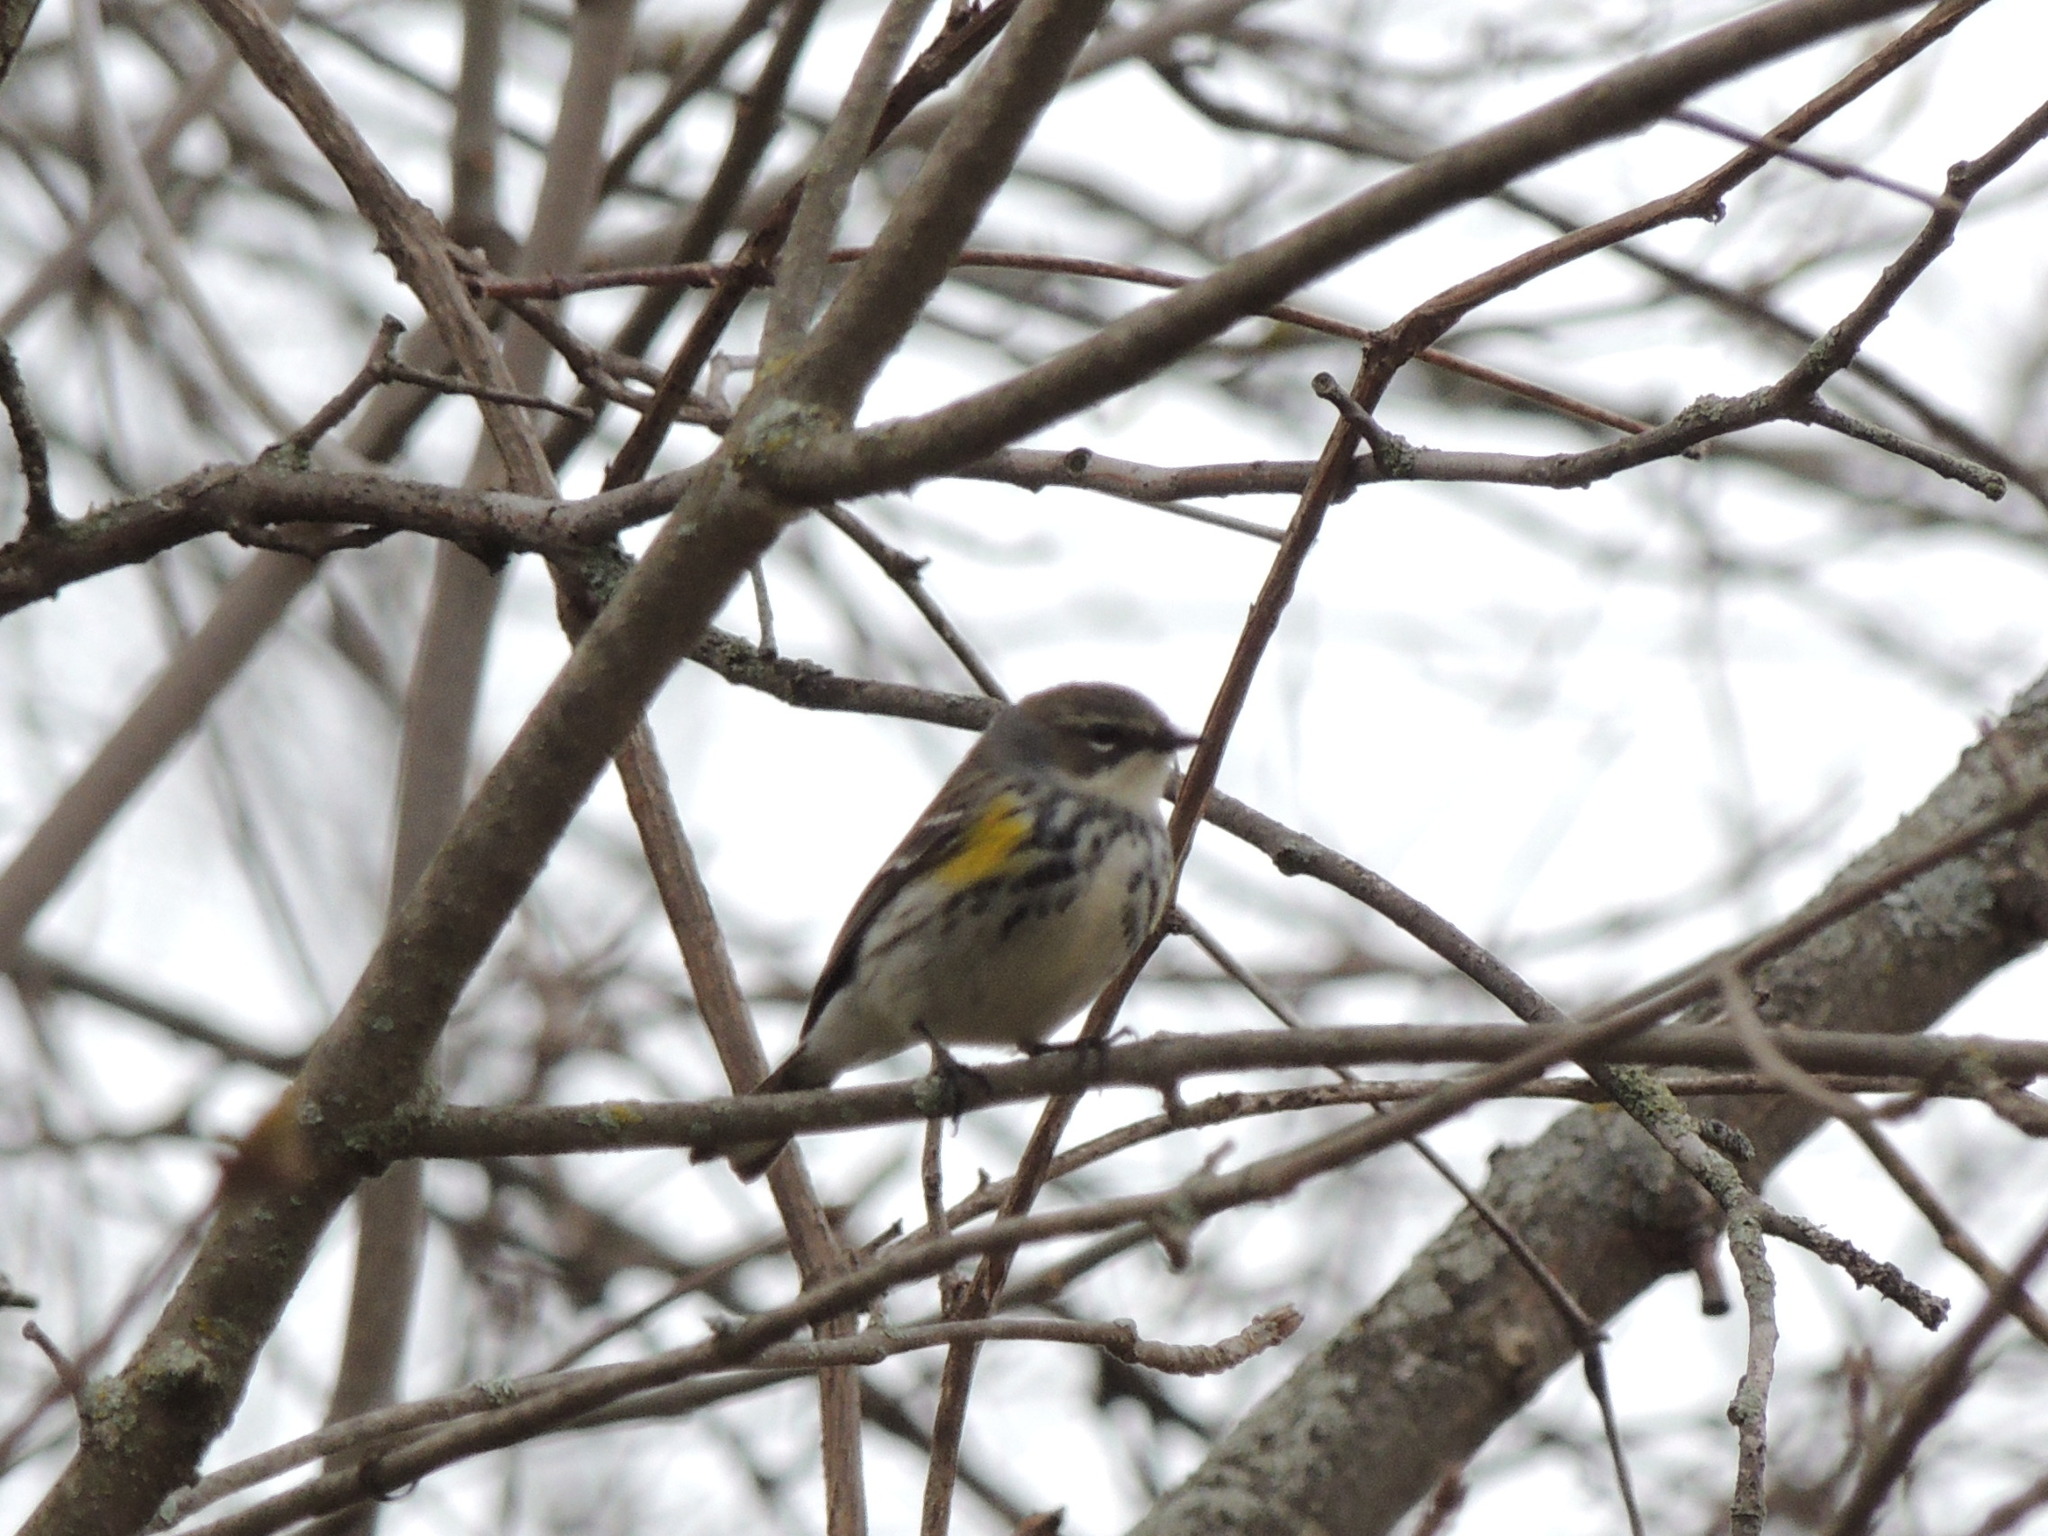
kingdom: Animalia
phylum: Chordata
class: Aves
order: Passeriformes
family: Parulidae
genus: Setophaga
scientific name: Setophaga coronata
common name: Myrtle warbler
